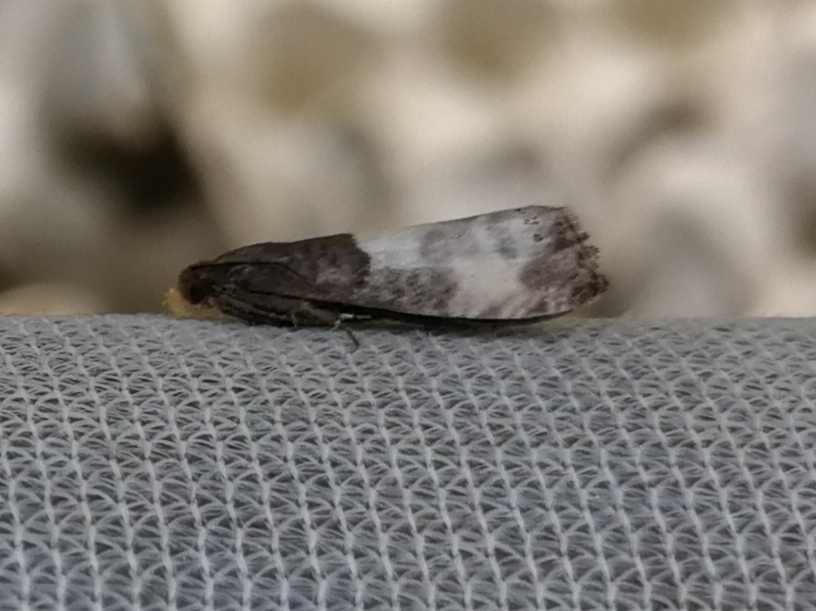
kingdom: Animalia
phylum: Arthropoda
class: Insecta
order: Lepidoptera
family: Tortricidae
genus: Notocelia
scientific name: Notocelia cynosbatella
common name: Yellow-faced bell moth
